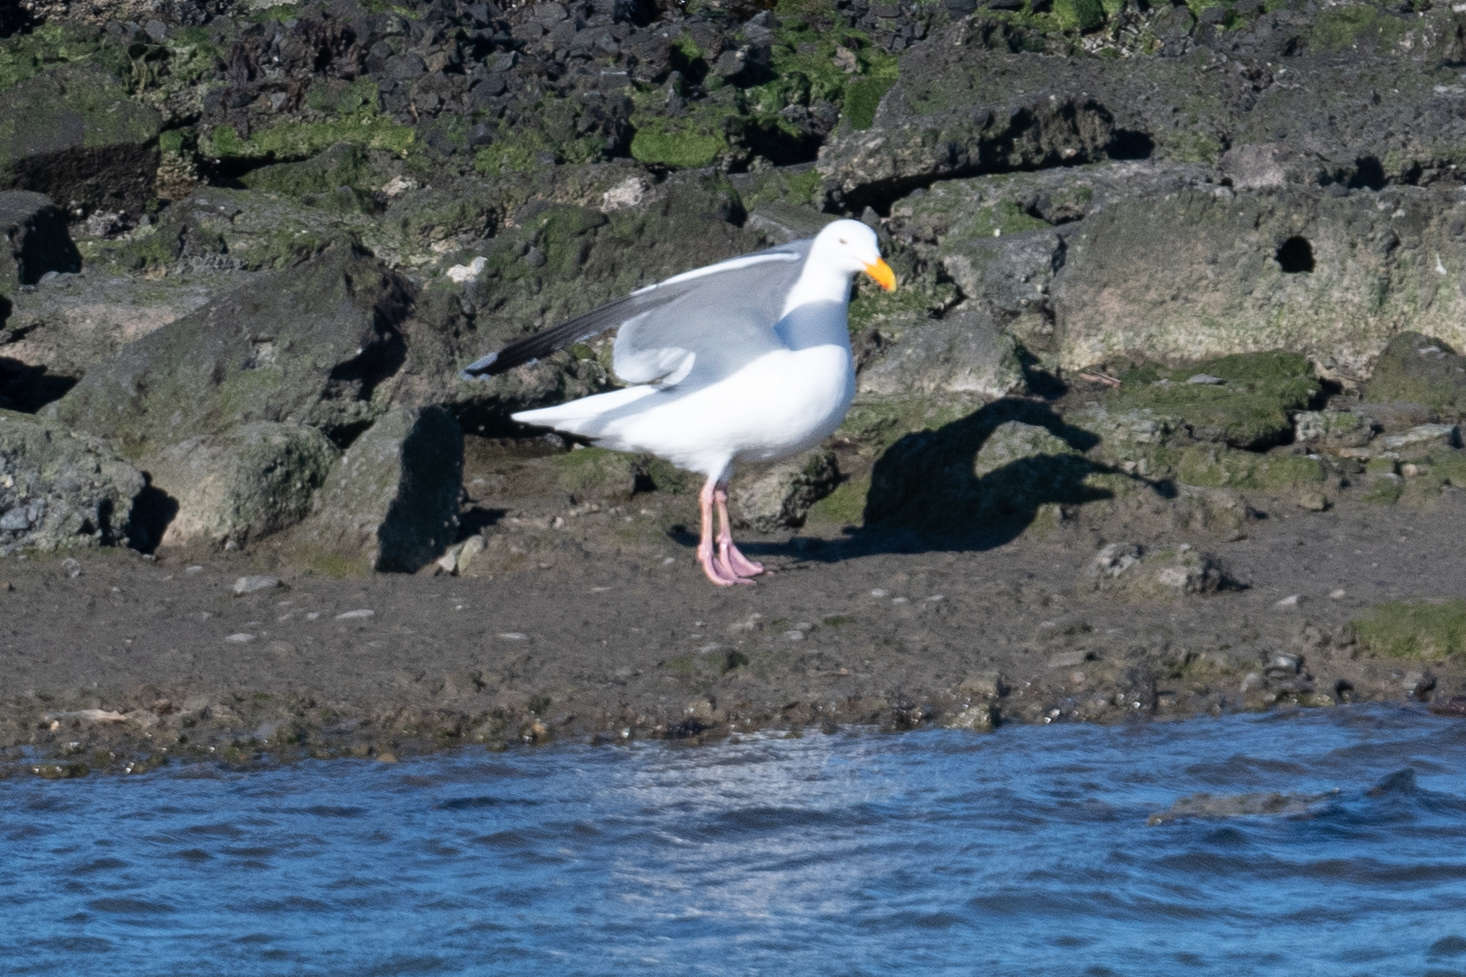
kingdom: Animalia
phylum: Chordata
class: Aves
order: Charadriiformes
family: Laridae
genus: Larus
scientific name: Larus occidentalis
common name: Western gull
